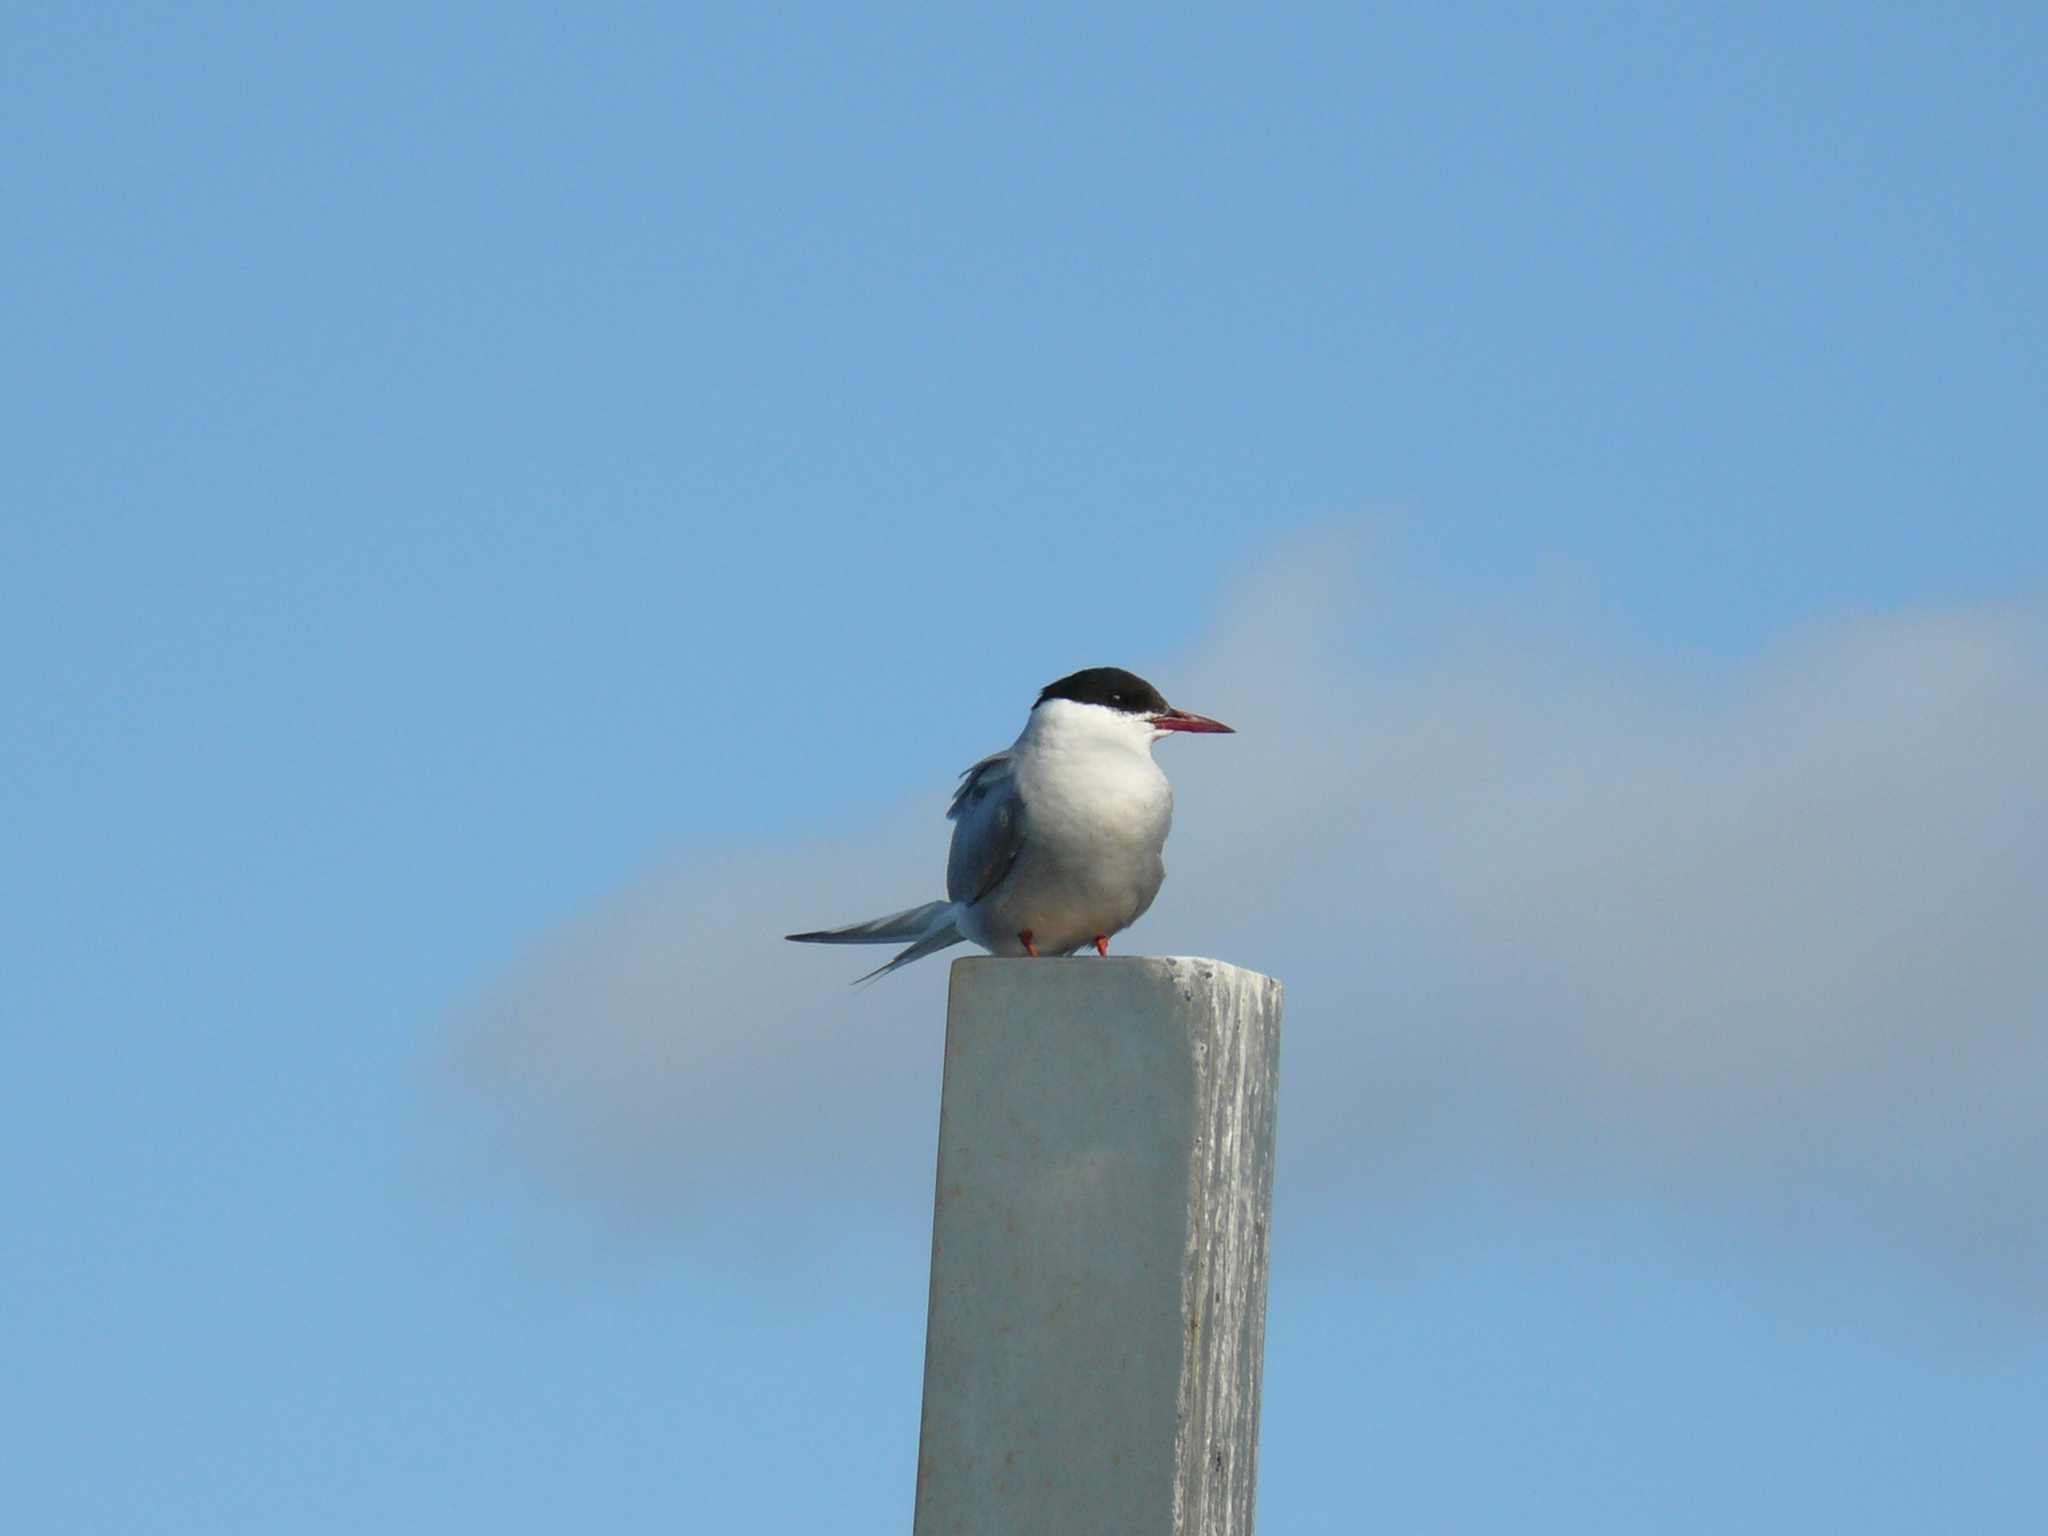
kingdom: Animalia
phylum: Chordata
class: Aves
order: Charadriiformes
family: Laridae
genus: Sterna
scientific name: Sterna paradisaea
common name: Arctic tern
